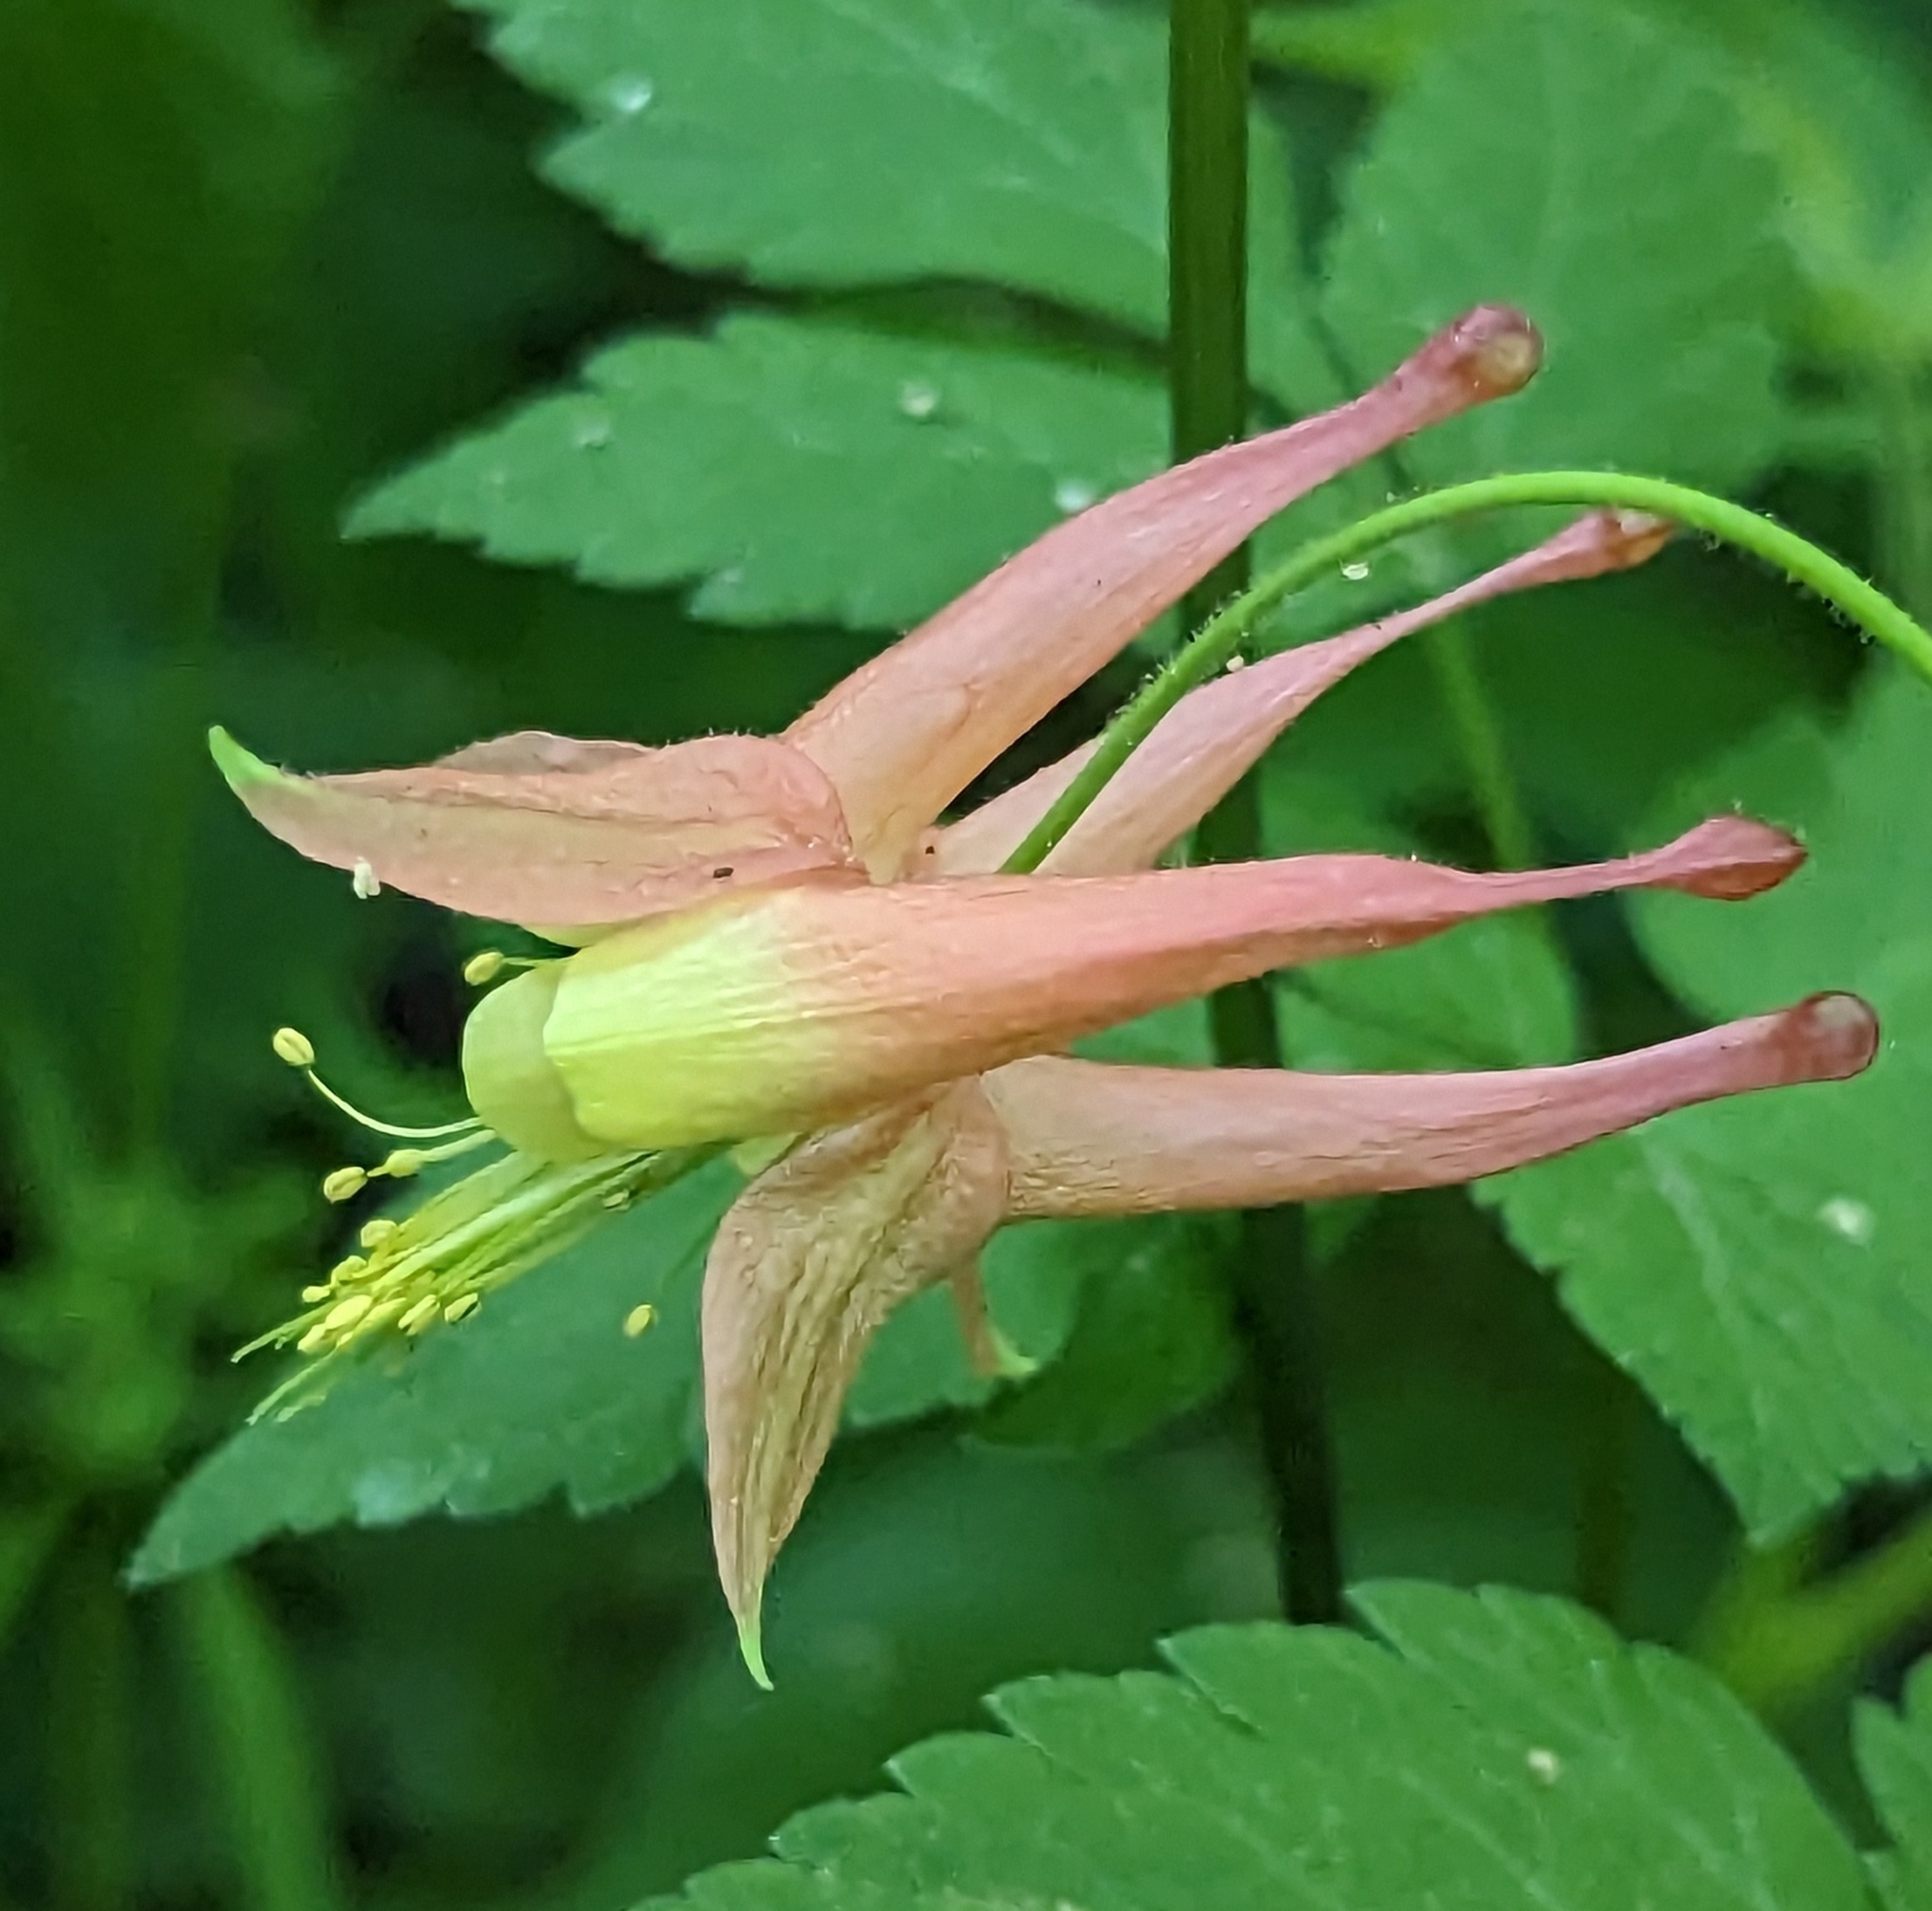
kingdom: Plantae
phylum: Tracheophyta
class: Magnoliopsida
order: Ranunculales
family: Ranunculaceae
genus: Aquilegia
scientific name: Aquilegia canadensis
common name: American columbine
